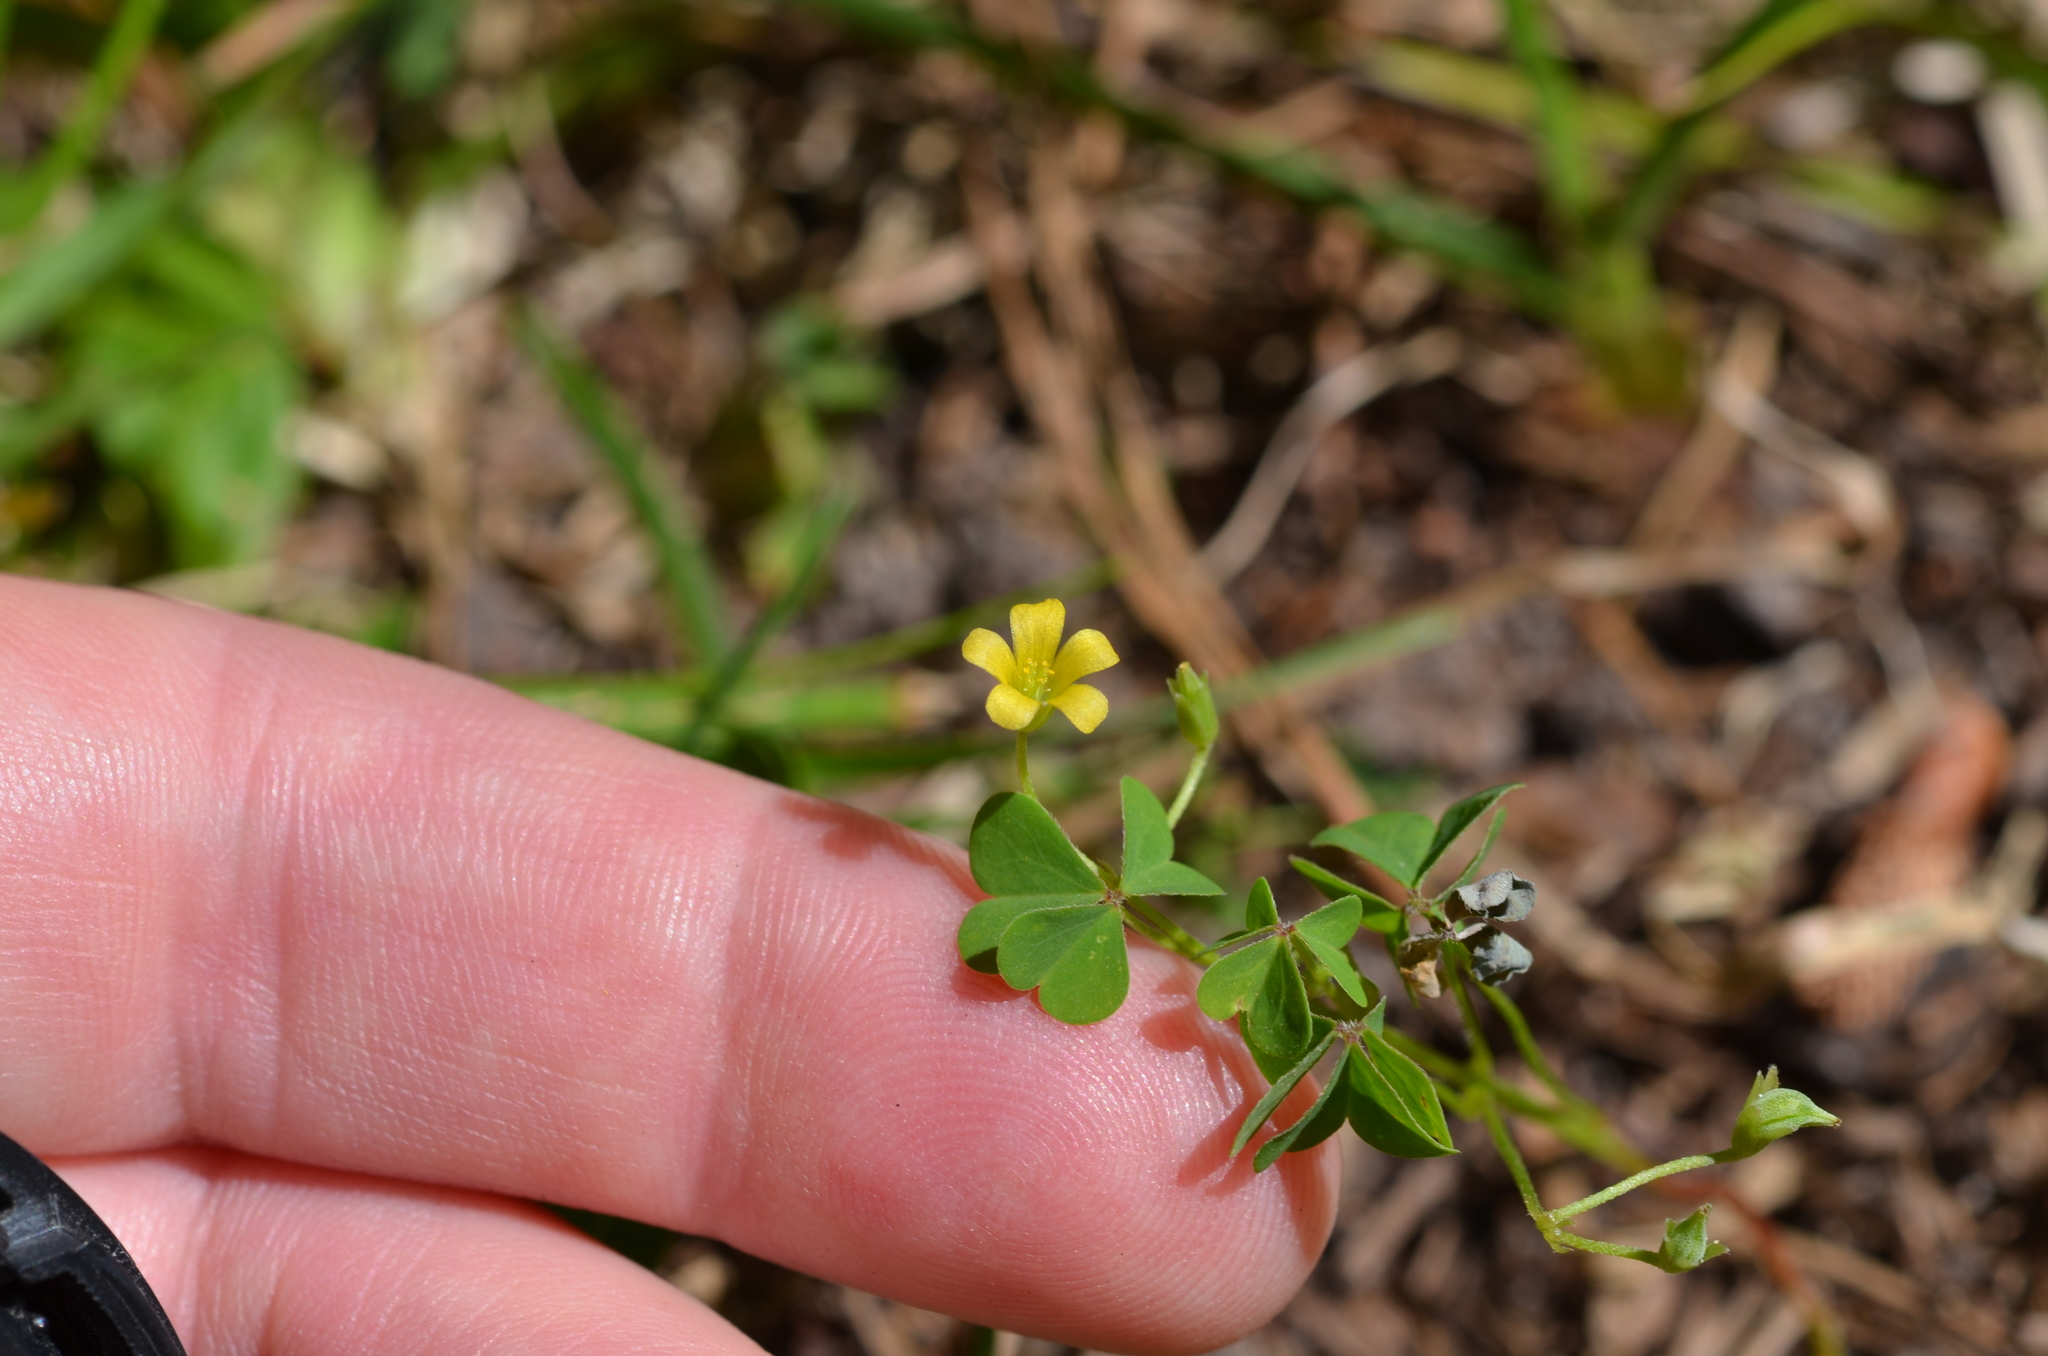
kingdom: Plantae
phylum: Tracheophyta
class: Magnoliopsida
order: Oxalidales
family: Oxalidaceae
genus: Oxalis
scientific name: Oxalis dillenii
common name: Sussex yellow-sorrel
